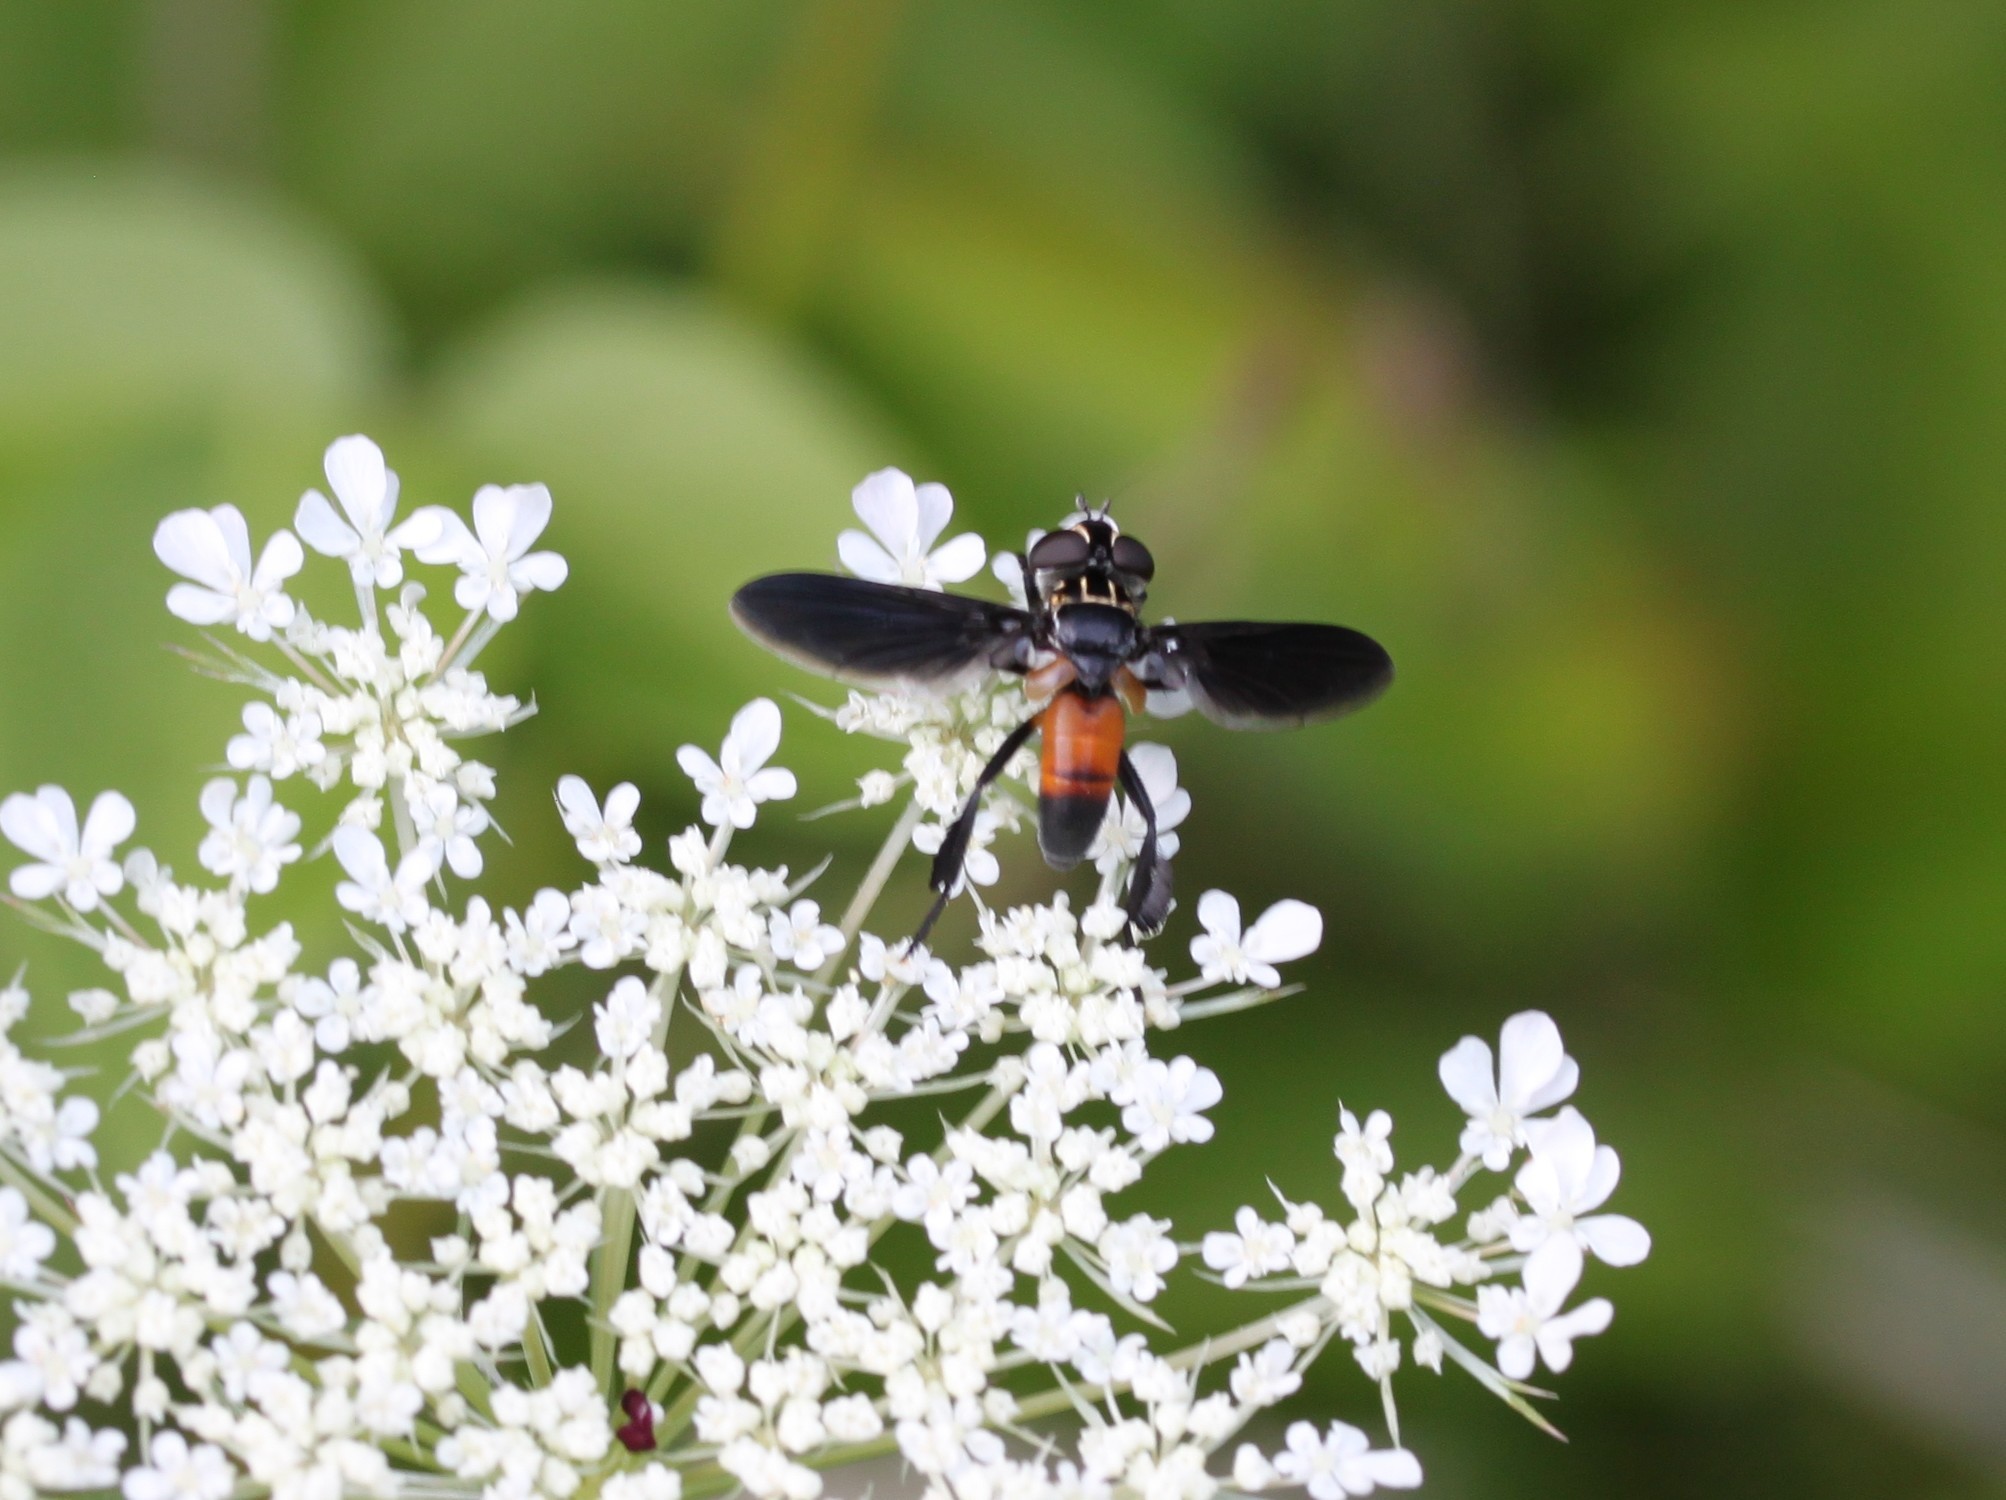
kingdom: Animalia
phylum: Arthropoda
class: Insecta
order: Diptera
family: Tachinidae
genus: Trichopoda
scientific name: Trichopoda pennipes
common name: Tachinid fly
